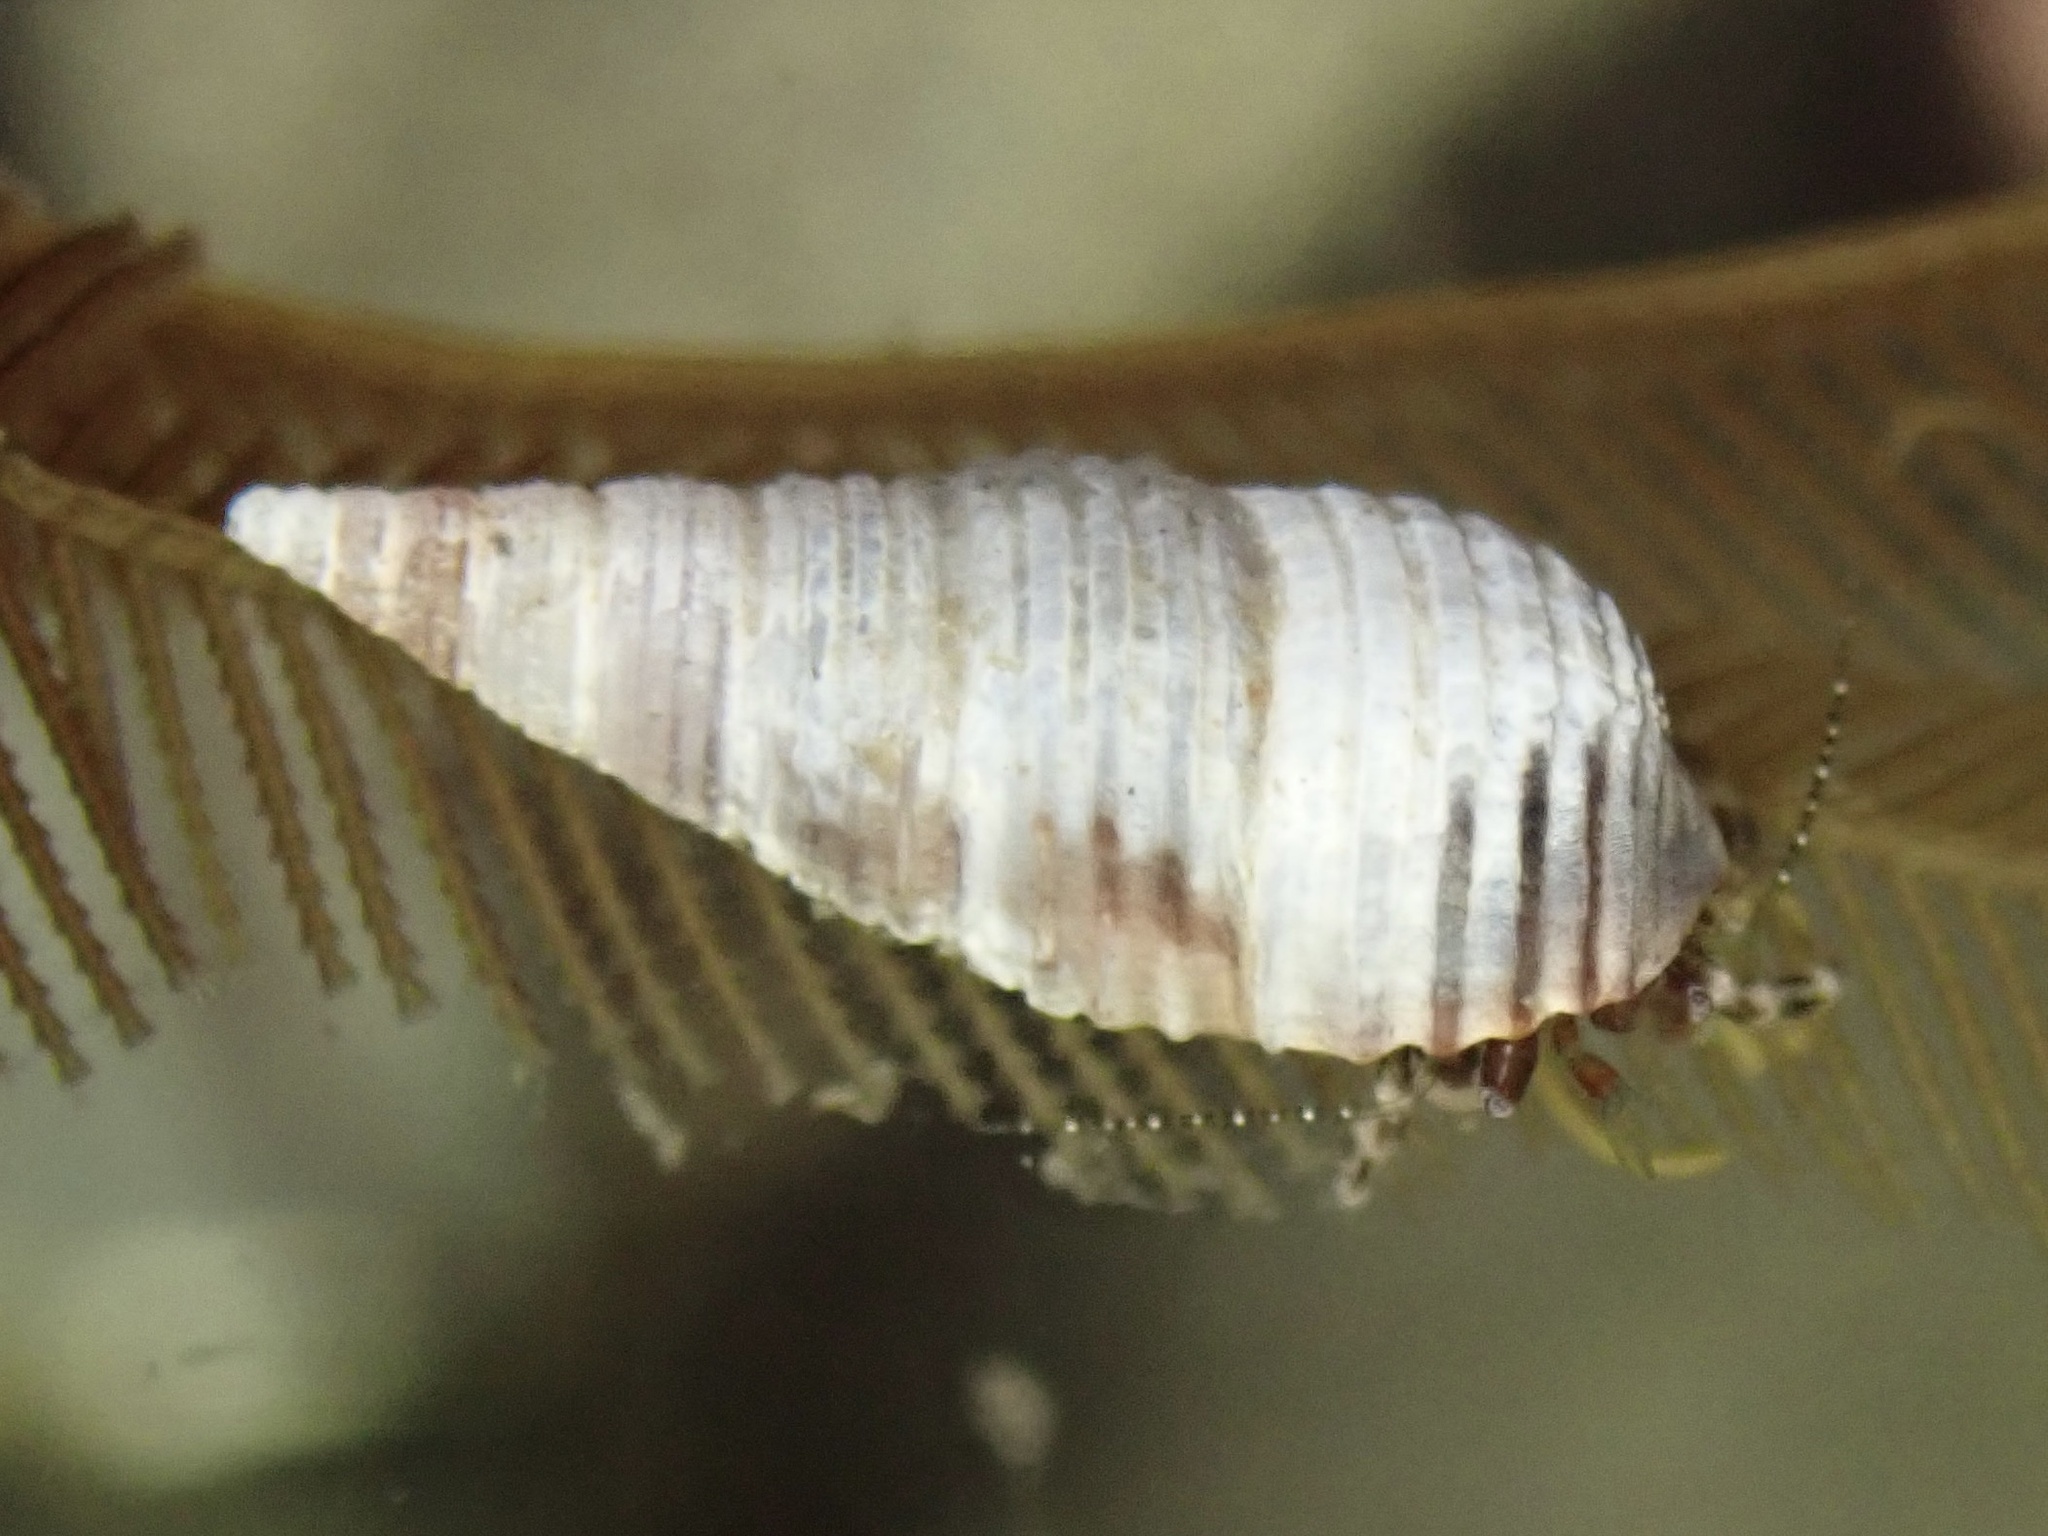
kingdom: Animalia
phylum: Mollusca
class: Gastropoda
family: Cerithiidae
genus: Neostylidium
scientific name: Neostylidium eschrichtii
